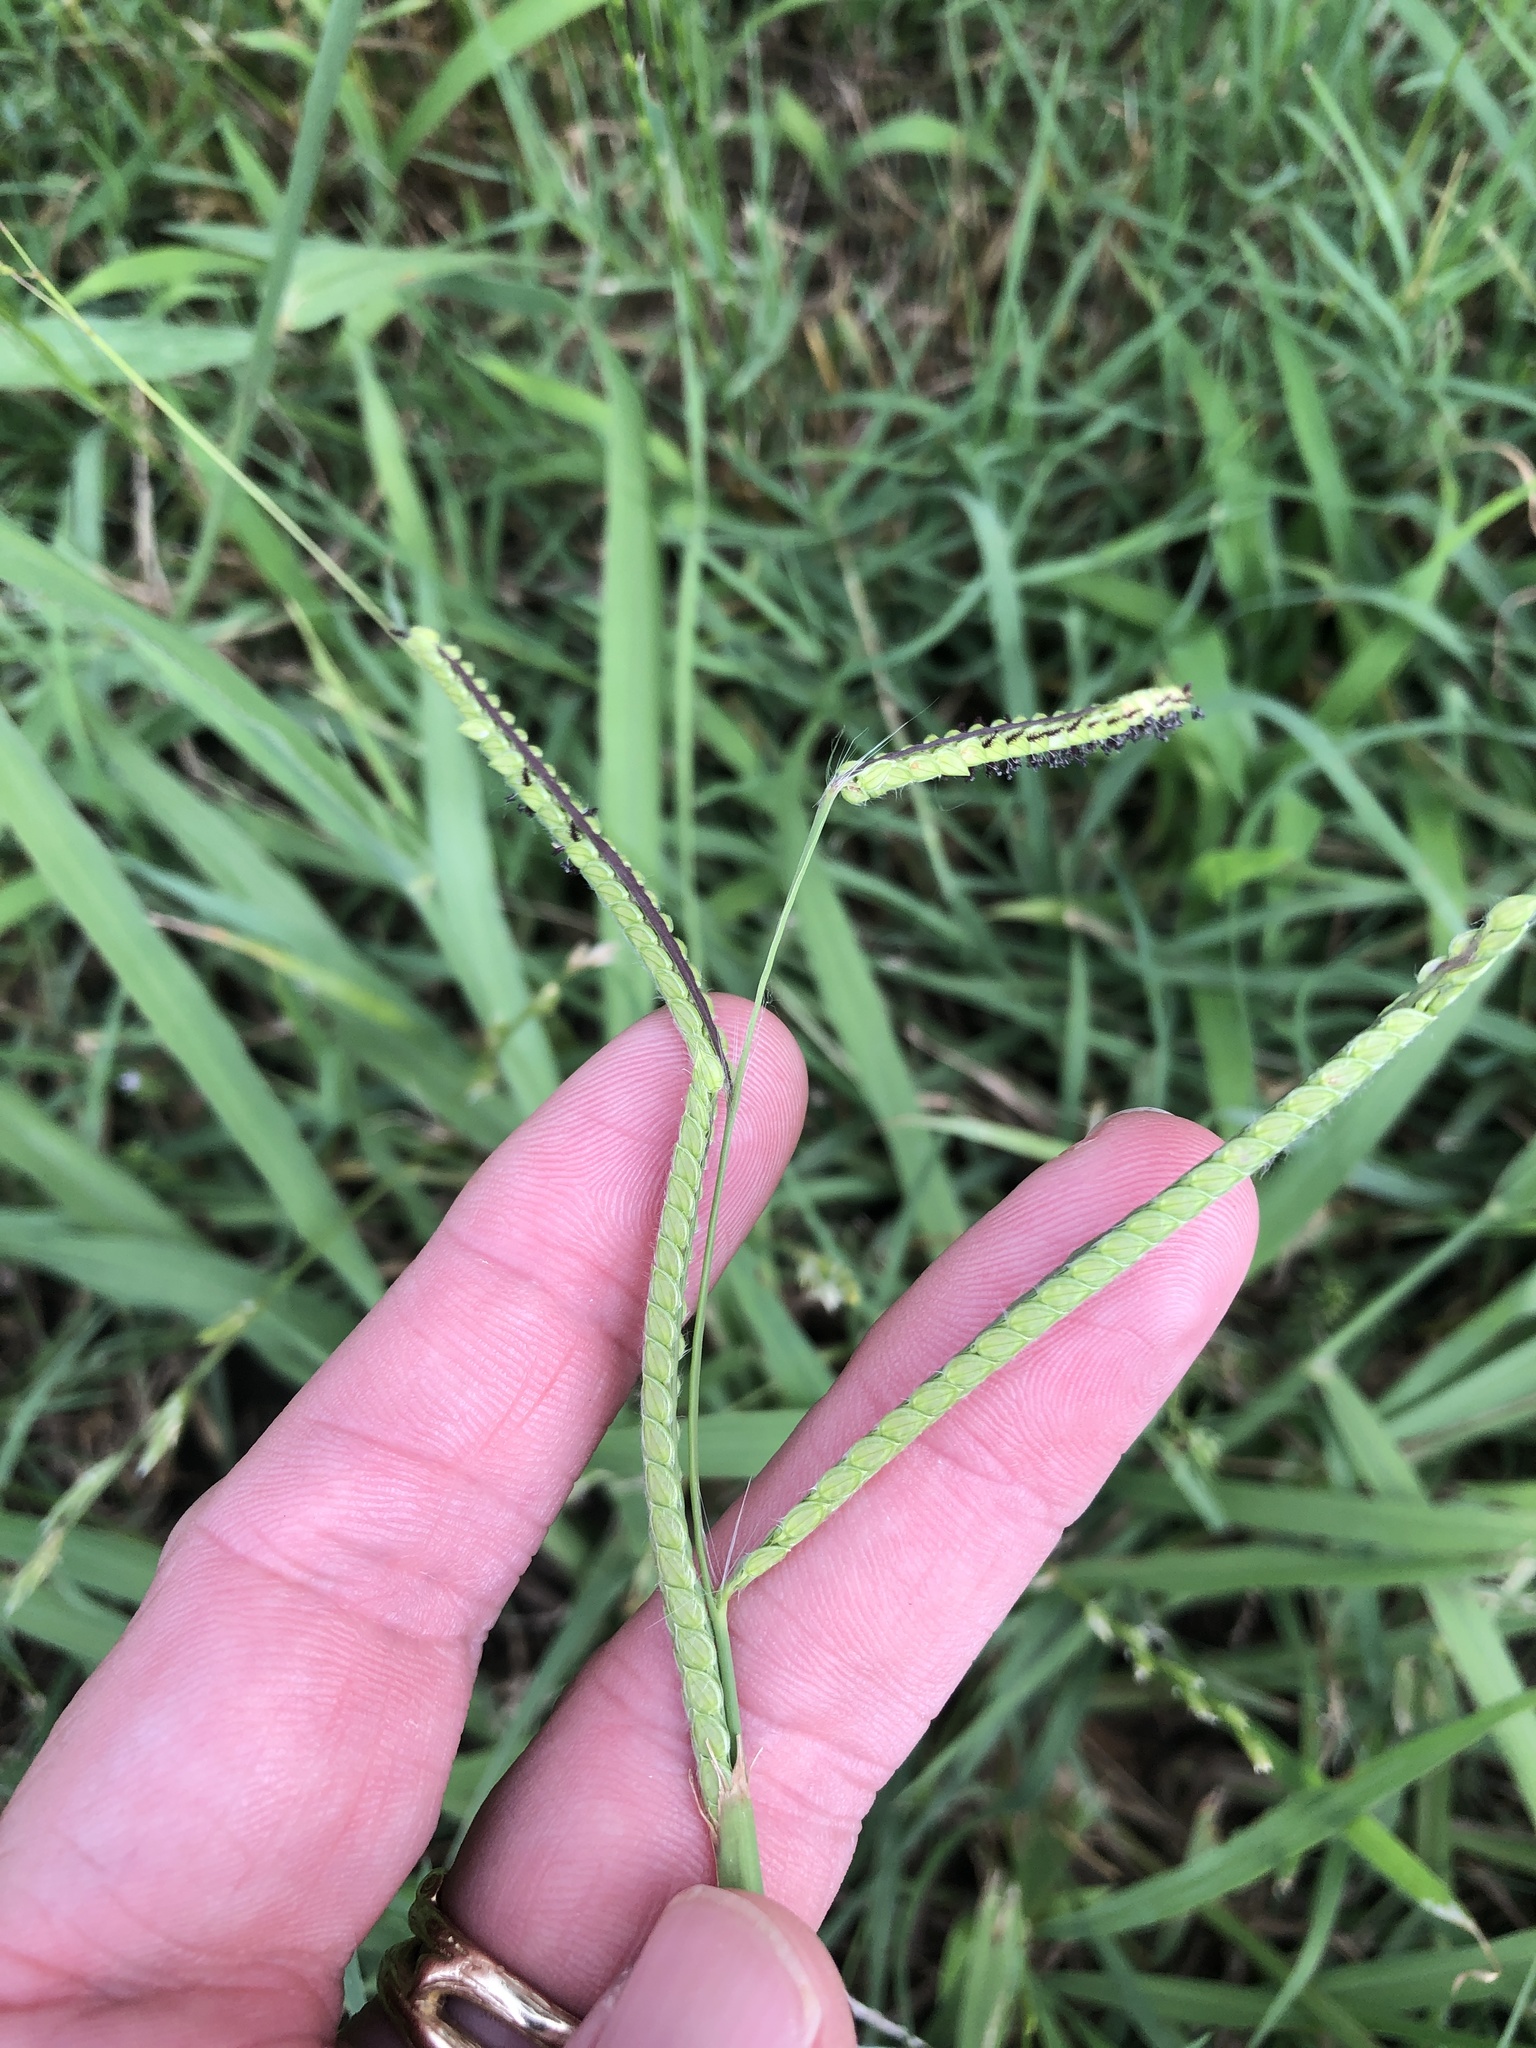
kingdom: Plantae
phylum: Tracheophyta
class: Liliopsida
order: Poales
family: Poaceae
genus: Paspalum
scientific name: Paspalum dilatatum
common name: Dallisgrass
